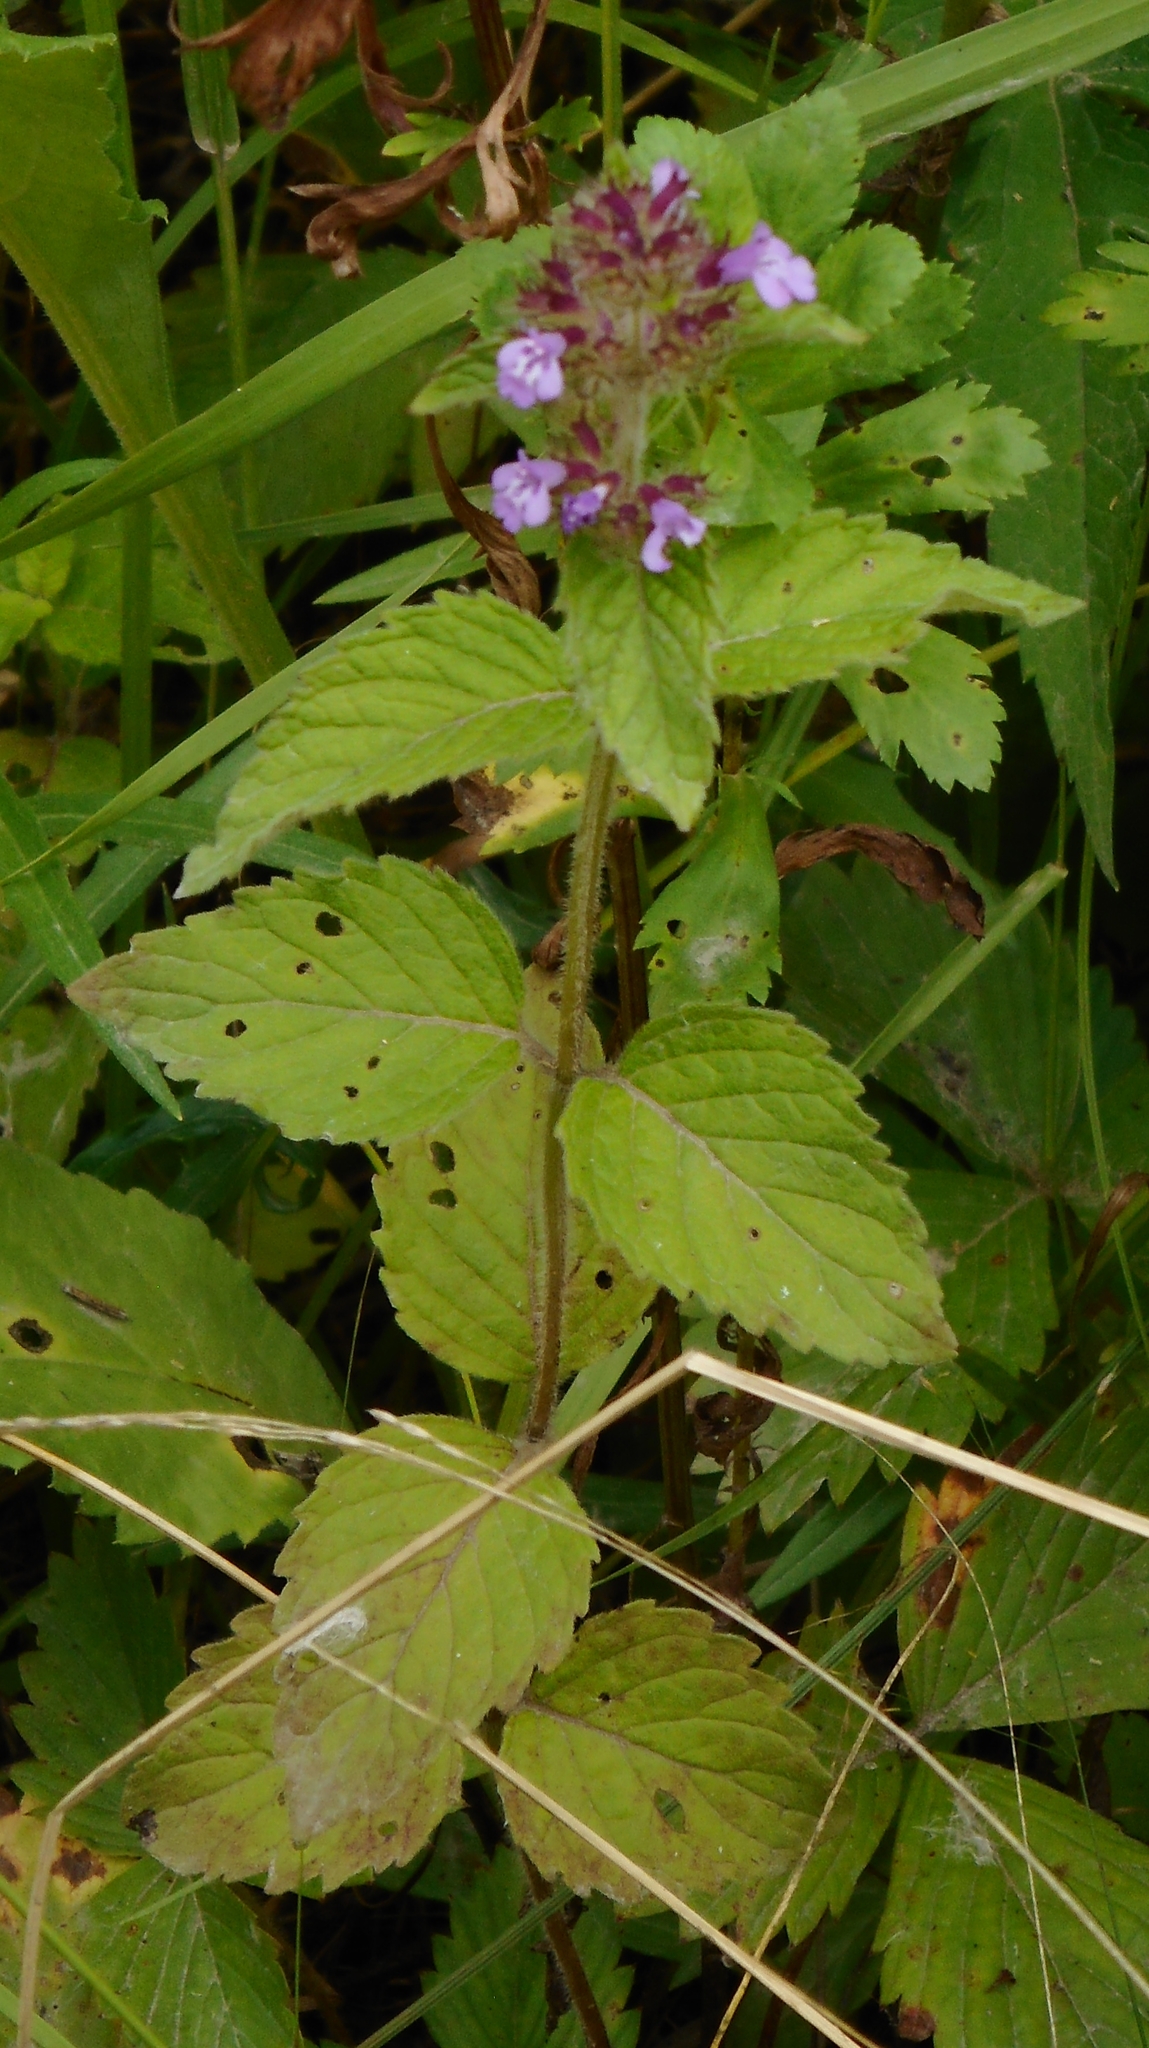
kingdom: Plantae
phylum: Tracheophyta
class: Magnoliopsida
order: Lamiales
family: Lamiaceae
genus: Clinopodium
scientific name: Clinopodium chinense
